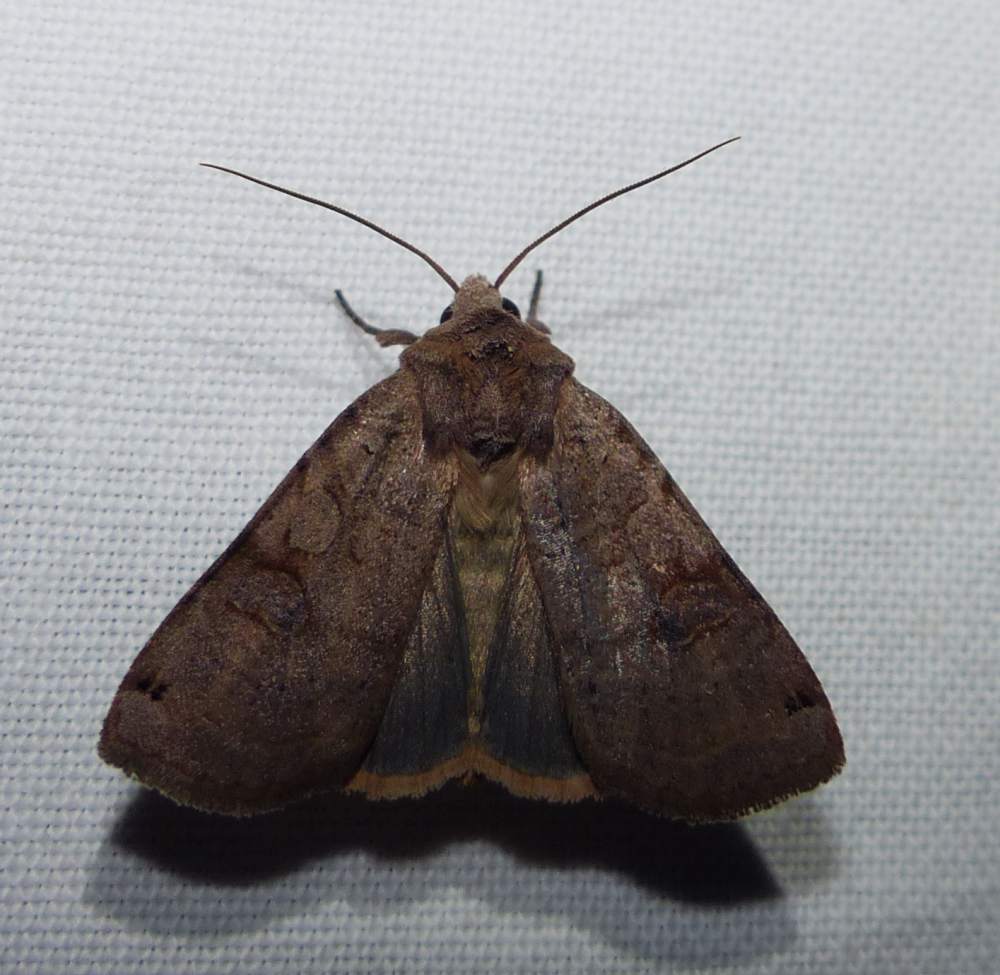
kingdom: Animalia
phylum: Arthropoda
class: Insecta
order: Lepidoptera
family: Noctuidae
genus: Xestia
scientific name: Xestia smithii
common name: Smith's dart
